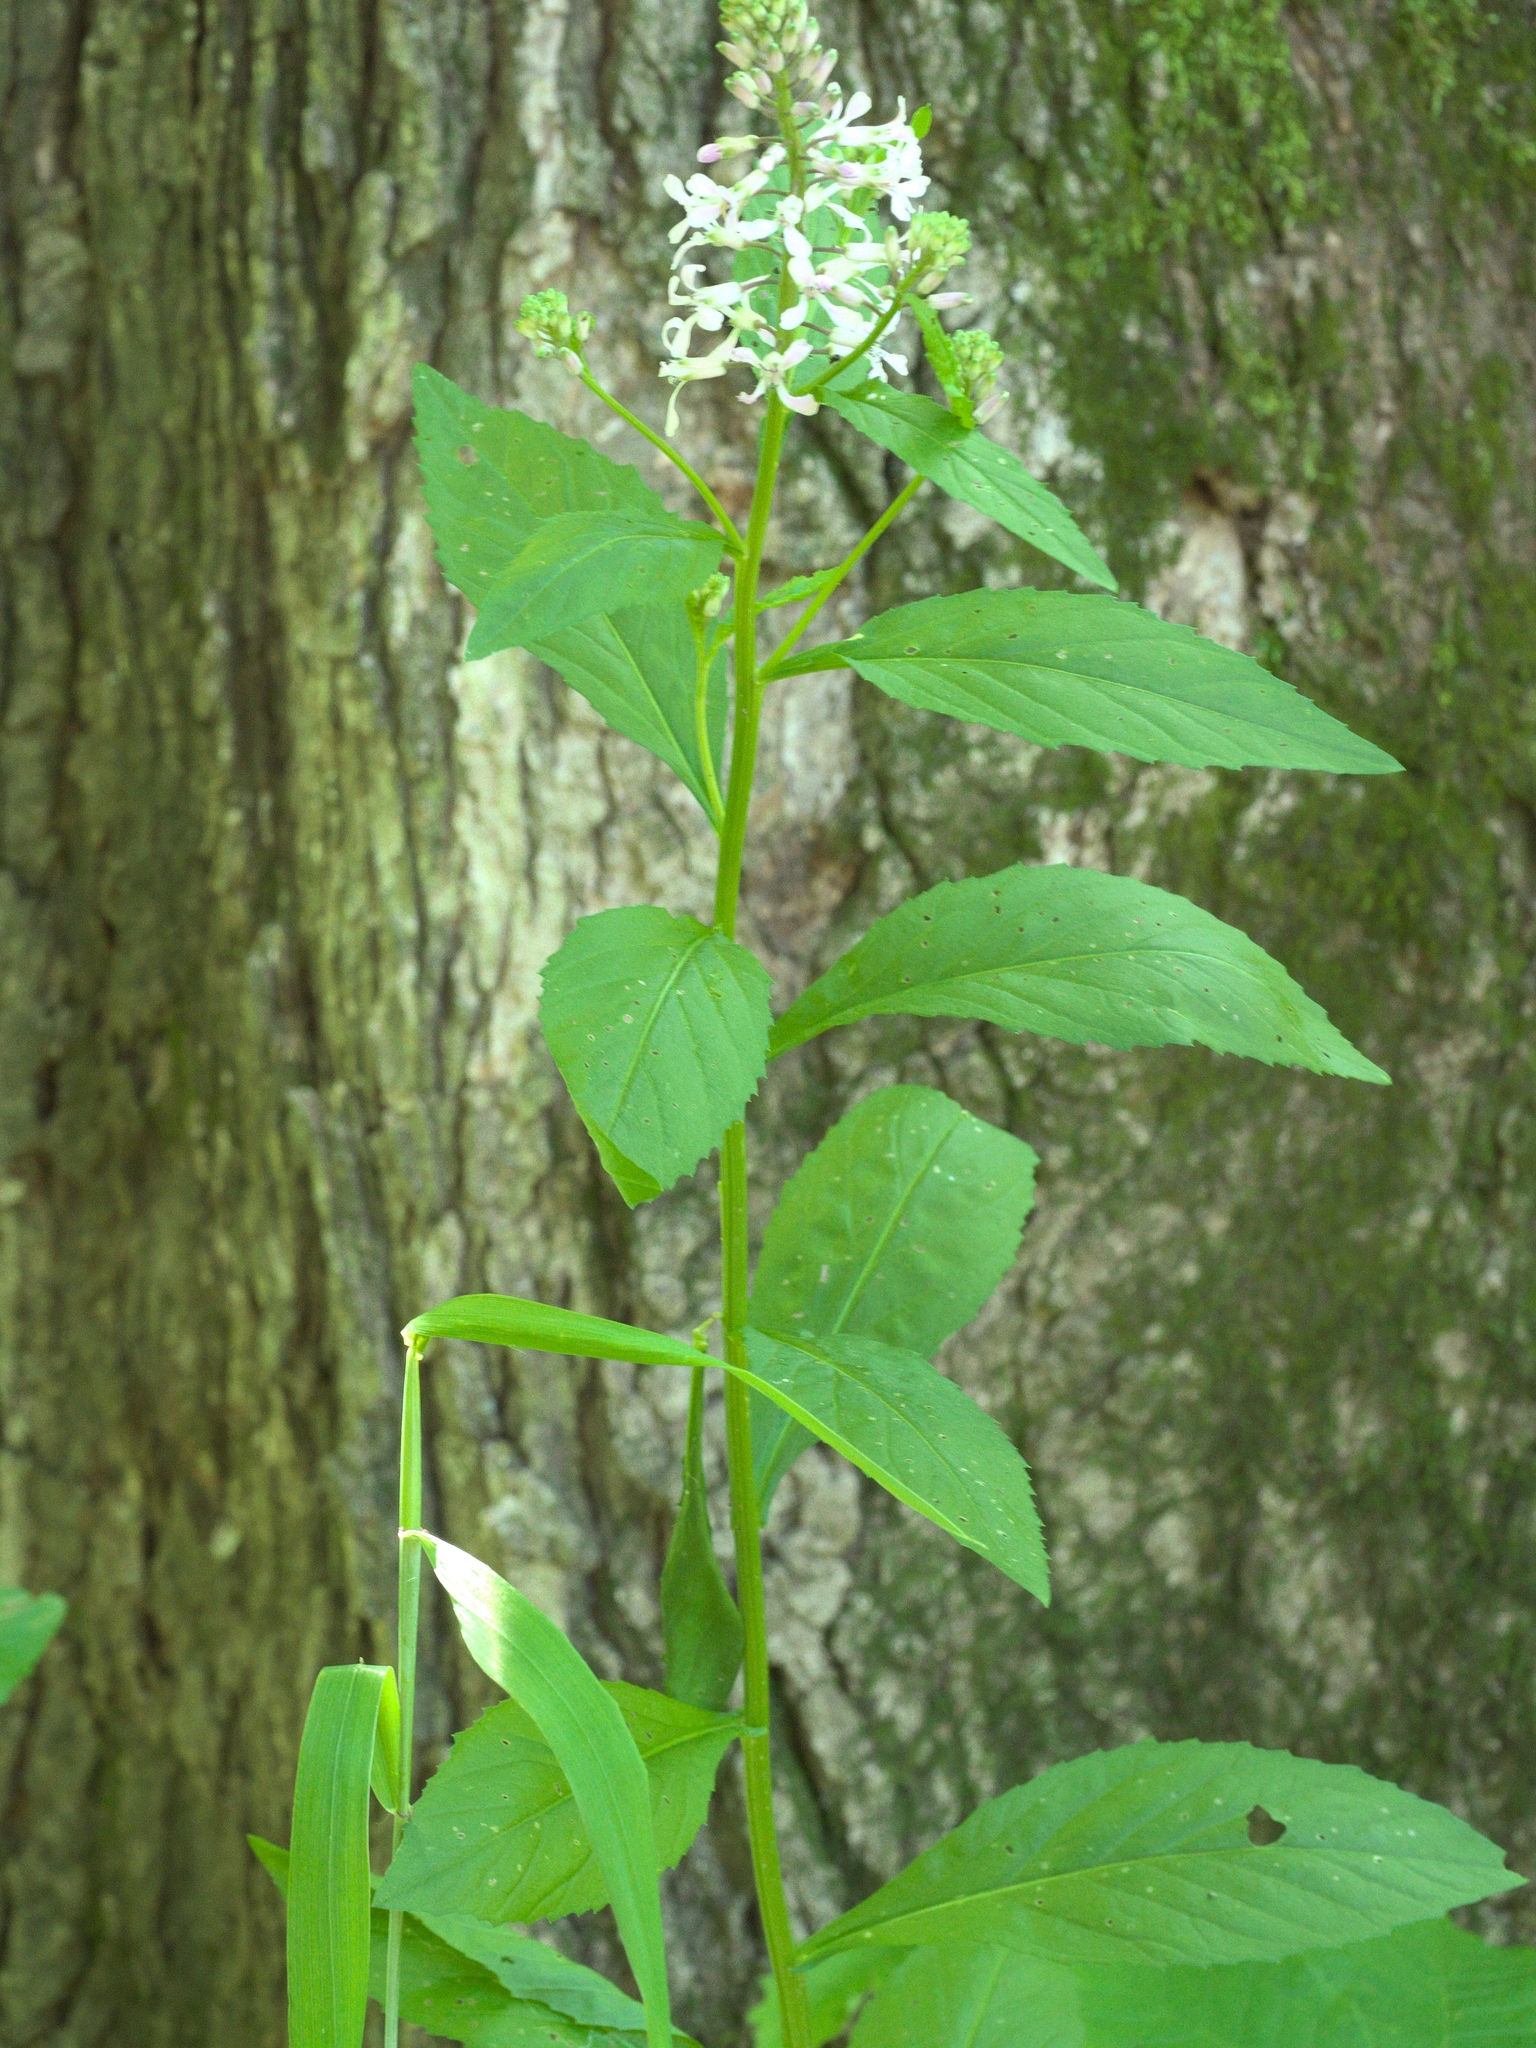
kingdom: Plantae
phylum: Tracheophyta
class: Magnoliopsida
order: Brassicales
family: Brassicaceae
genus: Iodanthus
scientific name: Iodanthus pinnatifidus
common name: Violet rocket
